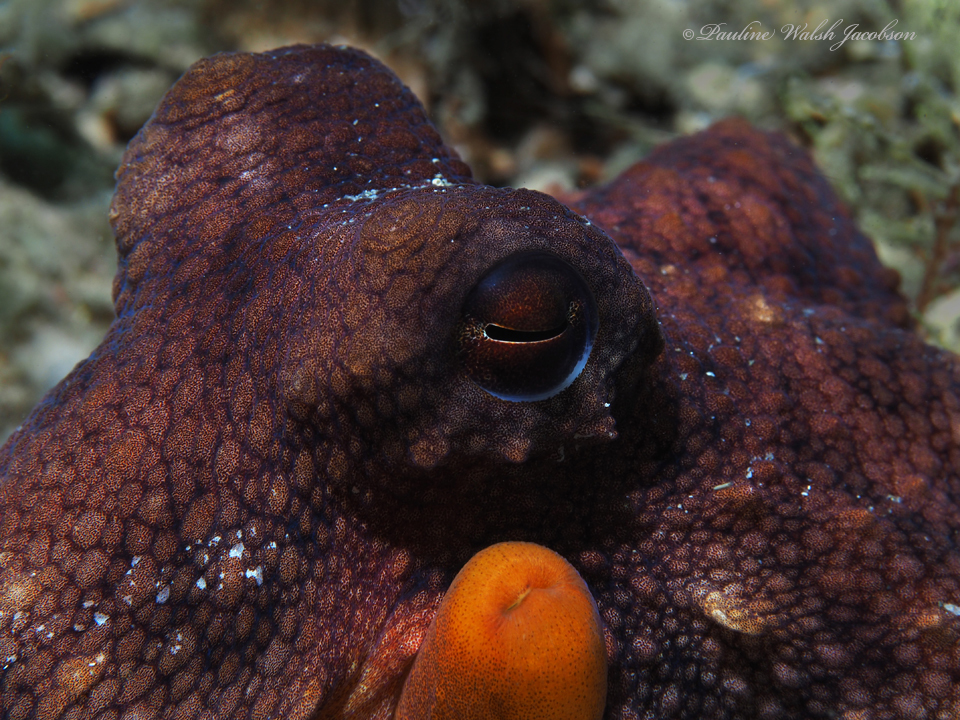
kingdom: Animalia
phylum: Mollusca
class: Cephalopoda
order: Octopoda
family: Octopodidae
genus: Octopus
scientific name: Octopus americanus
